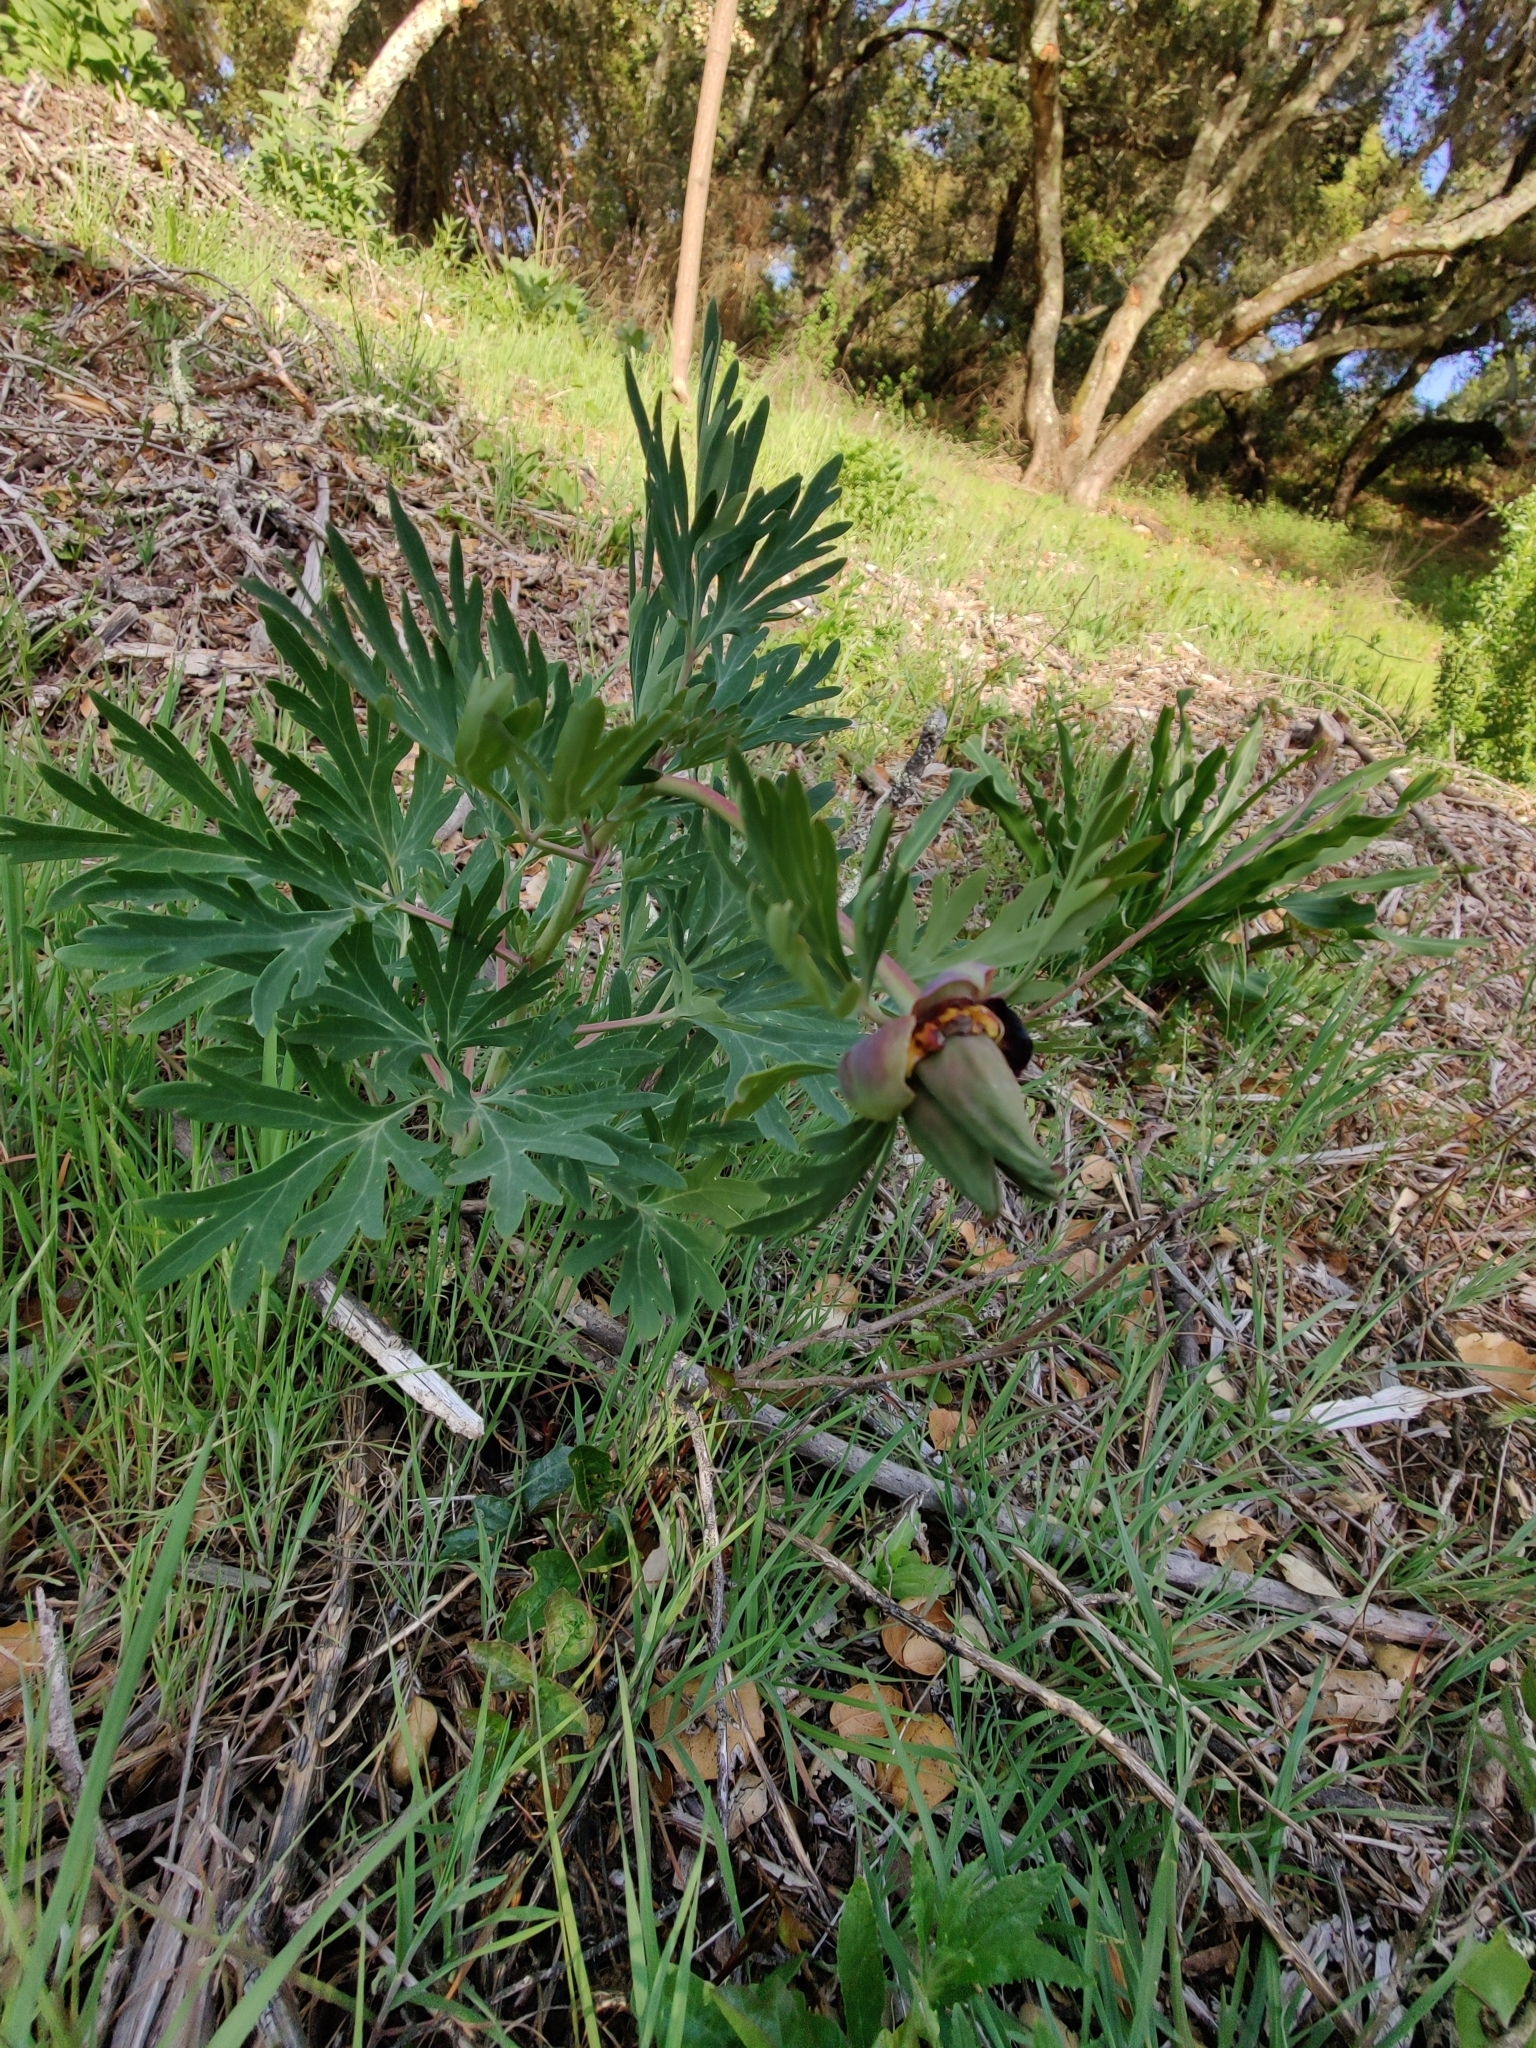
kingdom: Plantae
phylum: Tracheophyta
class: Magnoliopsida
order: Saxifragales
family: Paeoniaceae
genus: Paeonia
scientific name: Paeonia californica
